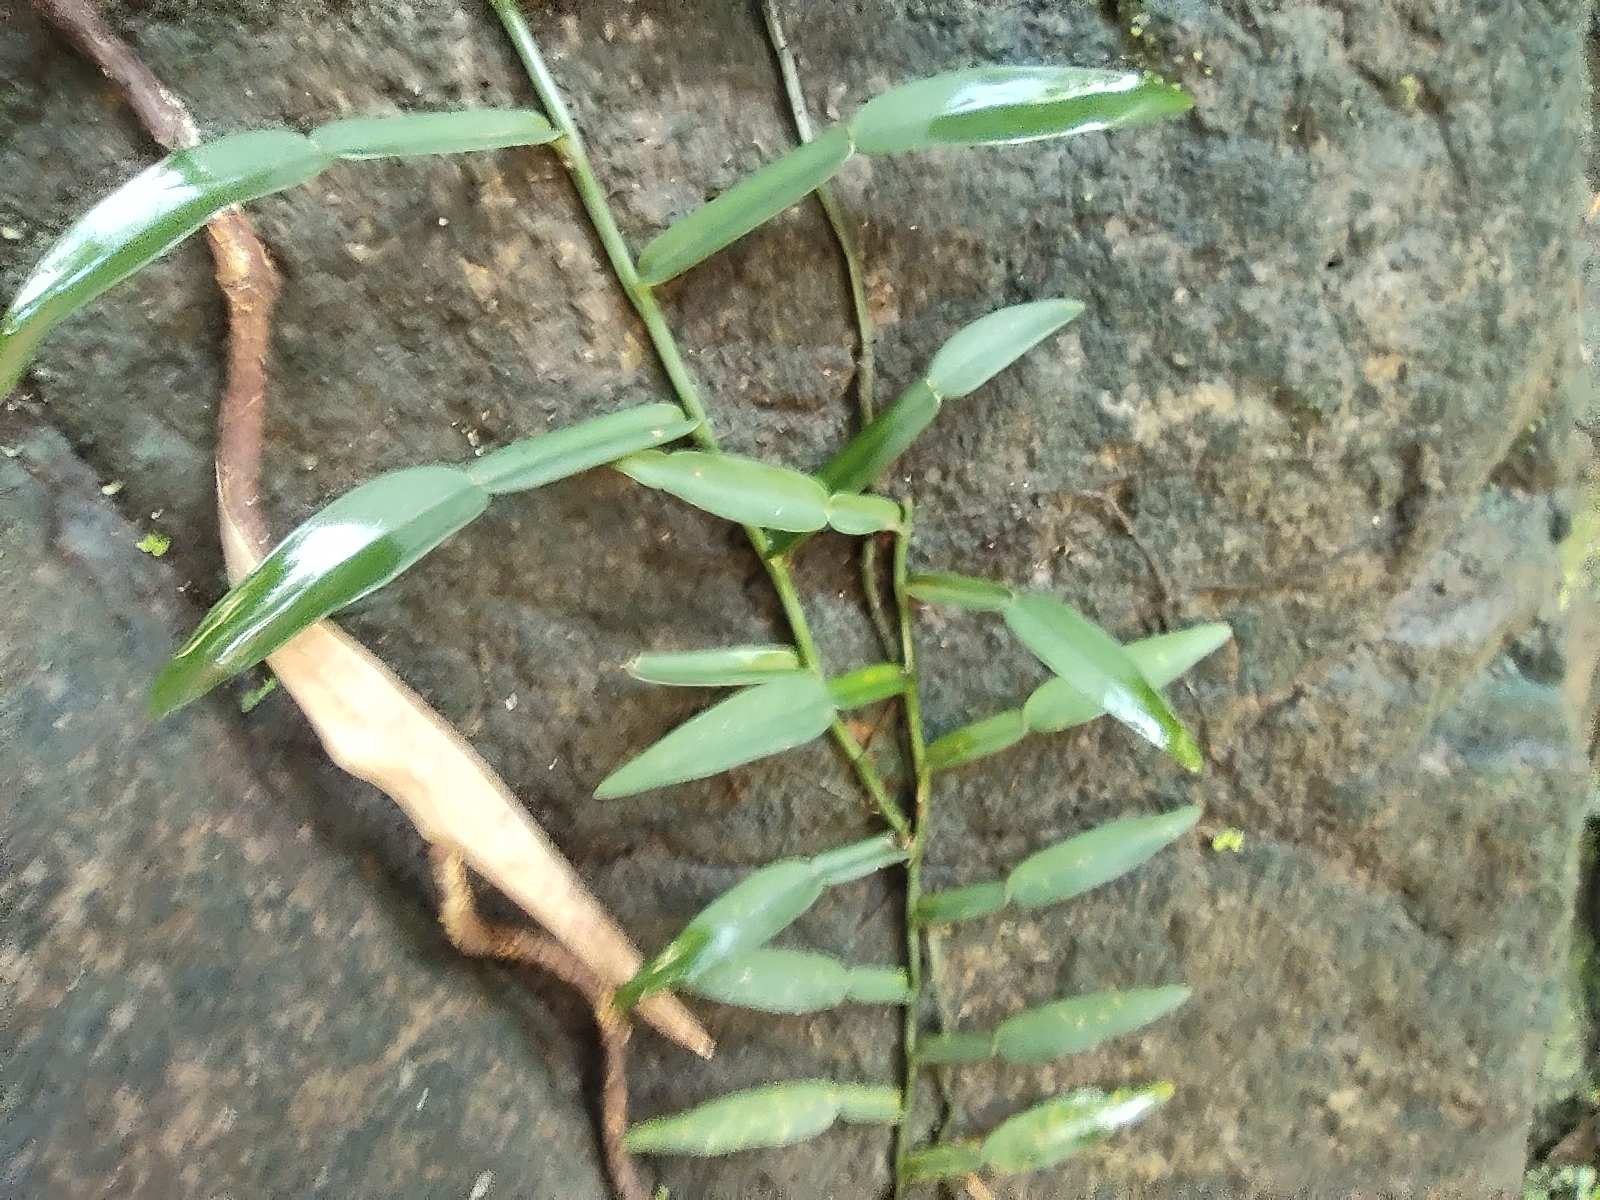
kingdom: Plantae
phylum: Tracheophyta
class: Liliopsida
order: Alismatales
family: Araceae
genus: Pothos
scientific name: Pothos scandens
